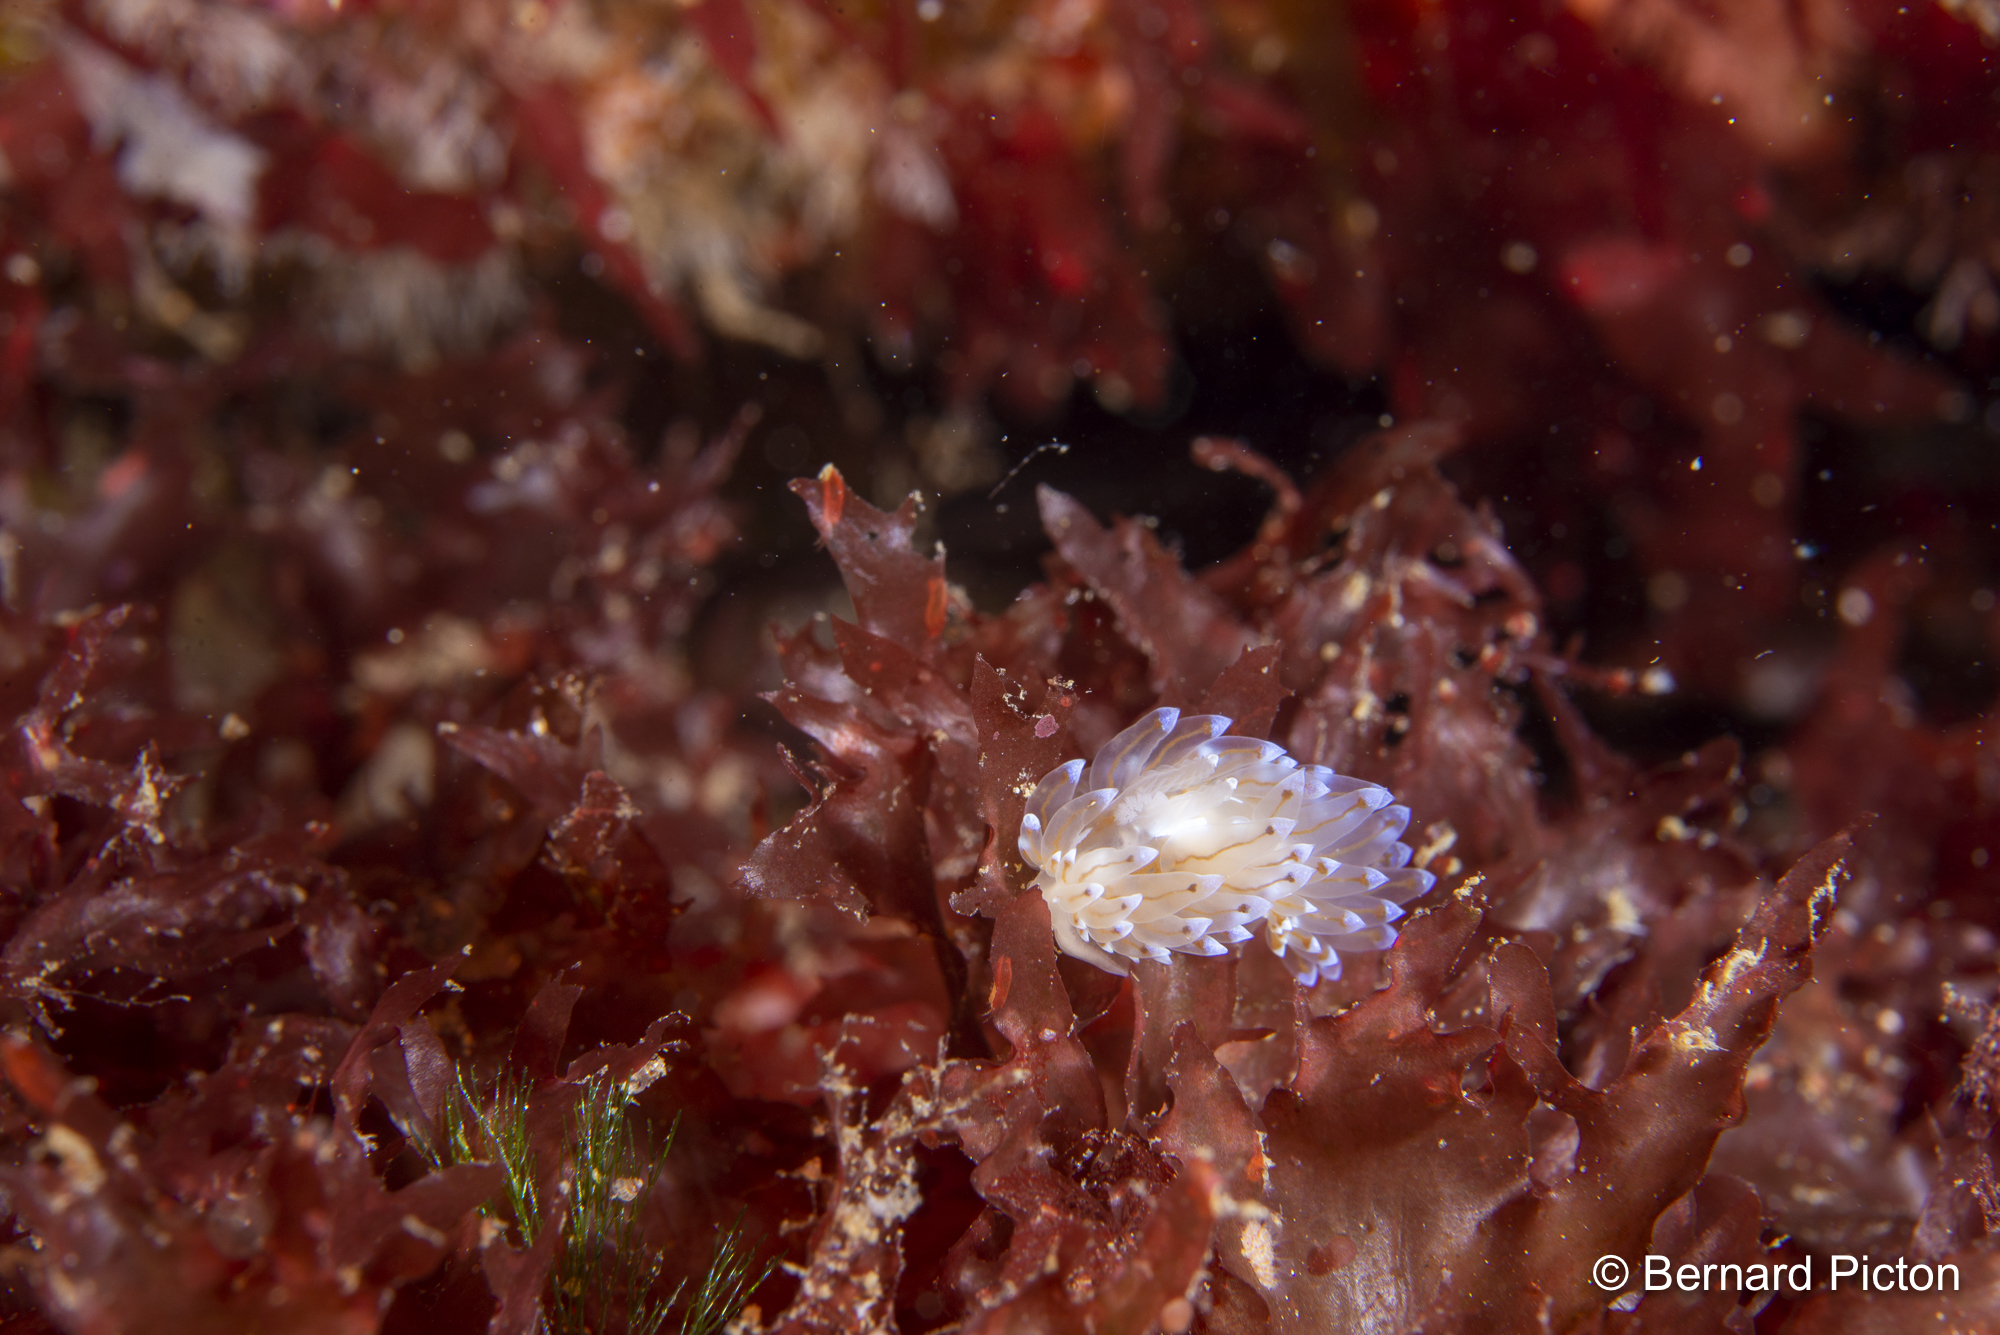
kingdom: Animalia
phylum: Mollusca
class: Gastropoda
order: Nudibranchia
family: Janolidae
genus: Antiopella
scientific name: Antiopella cristata
